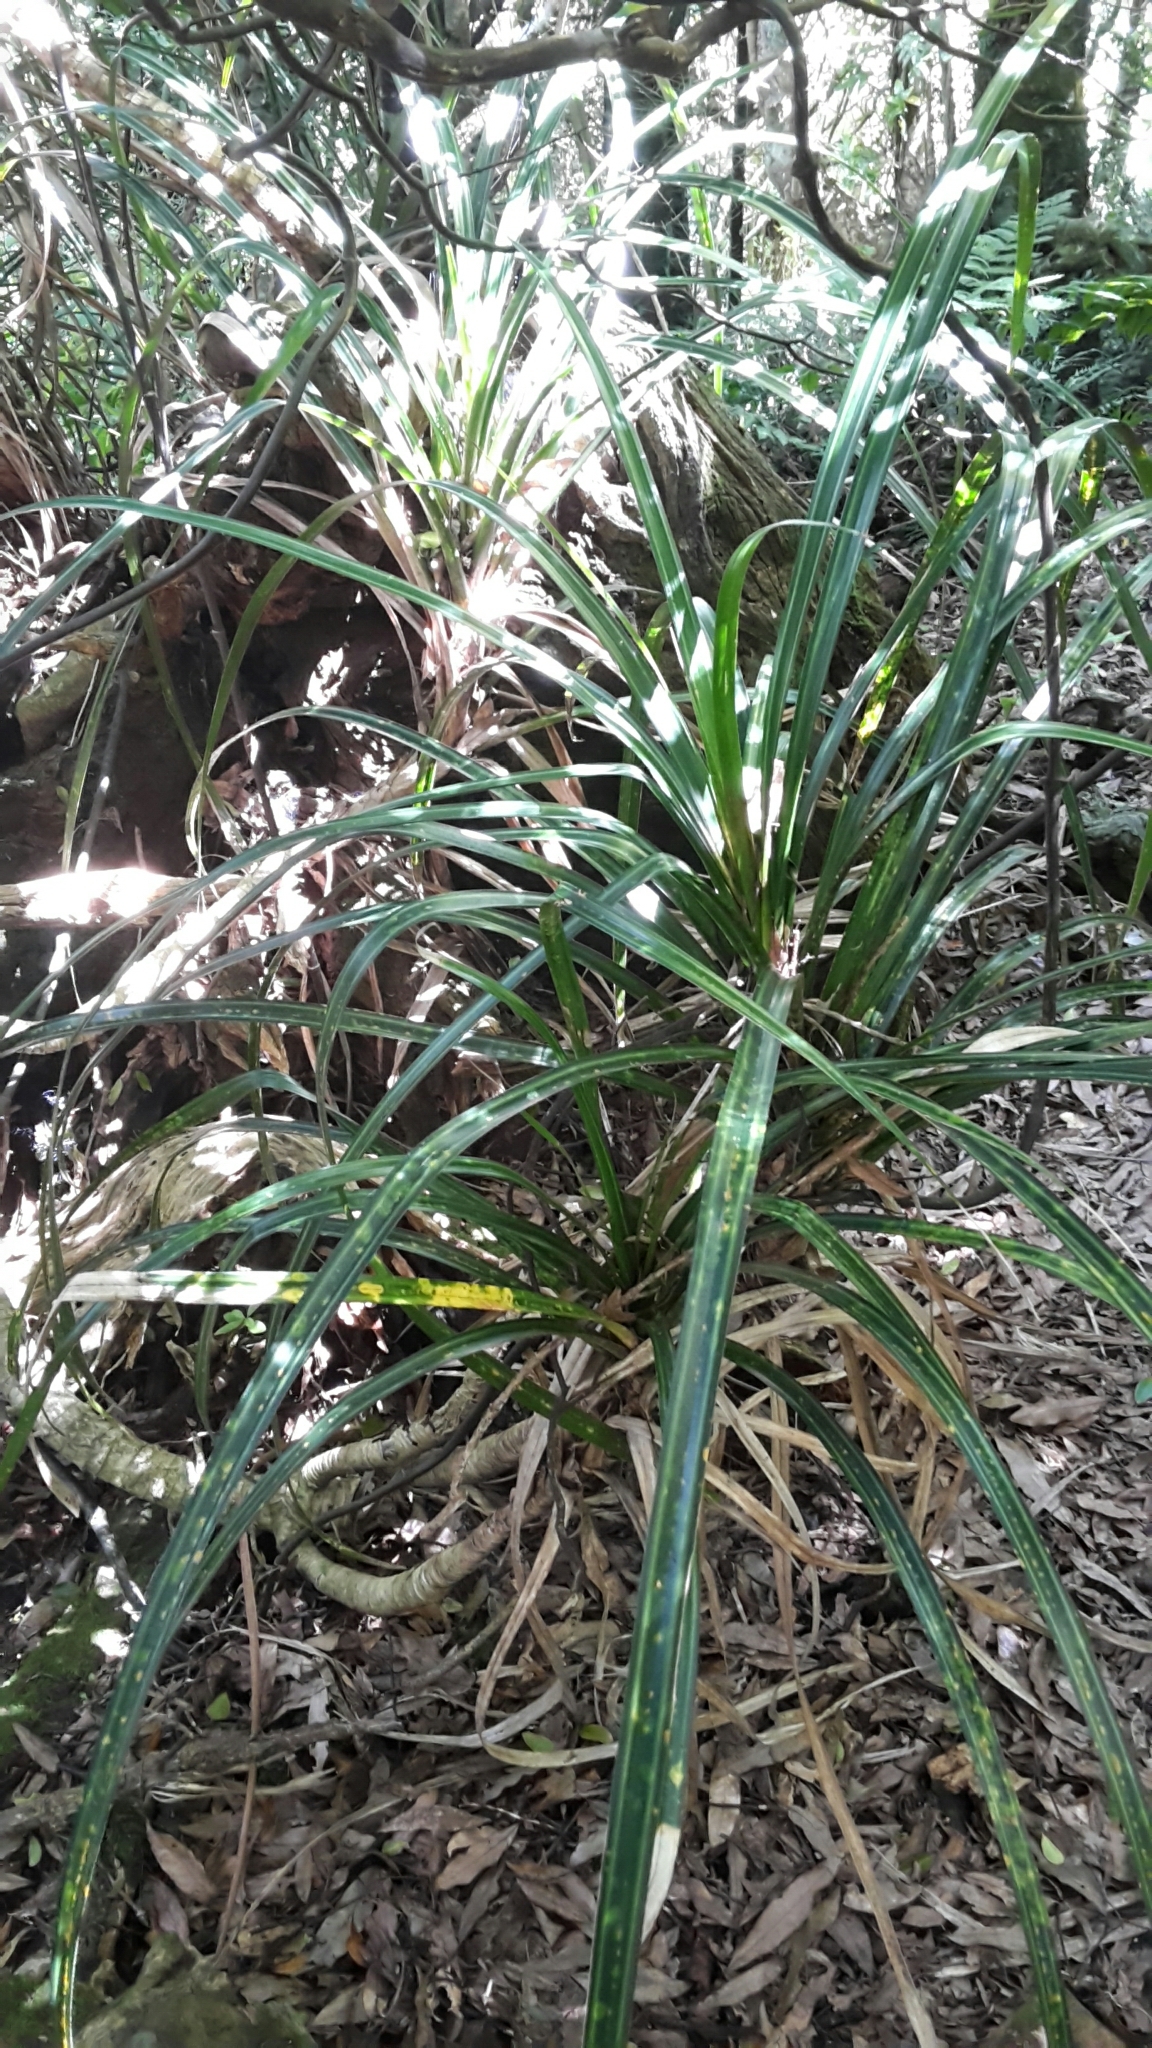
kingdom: Plantae
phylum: Tracheophyta
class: Liliopsida
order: Pandanales
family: Pandanaceae
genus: Freycinetia
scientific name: Freycinetia banksii
